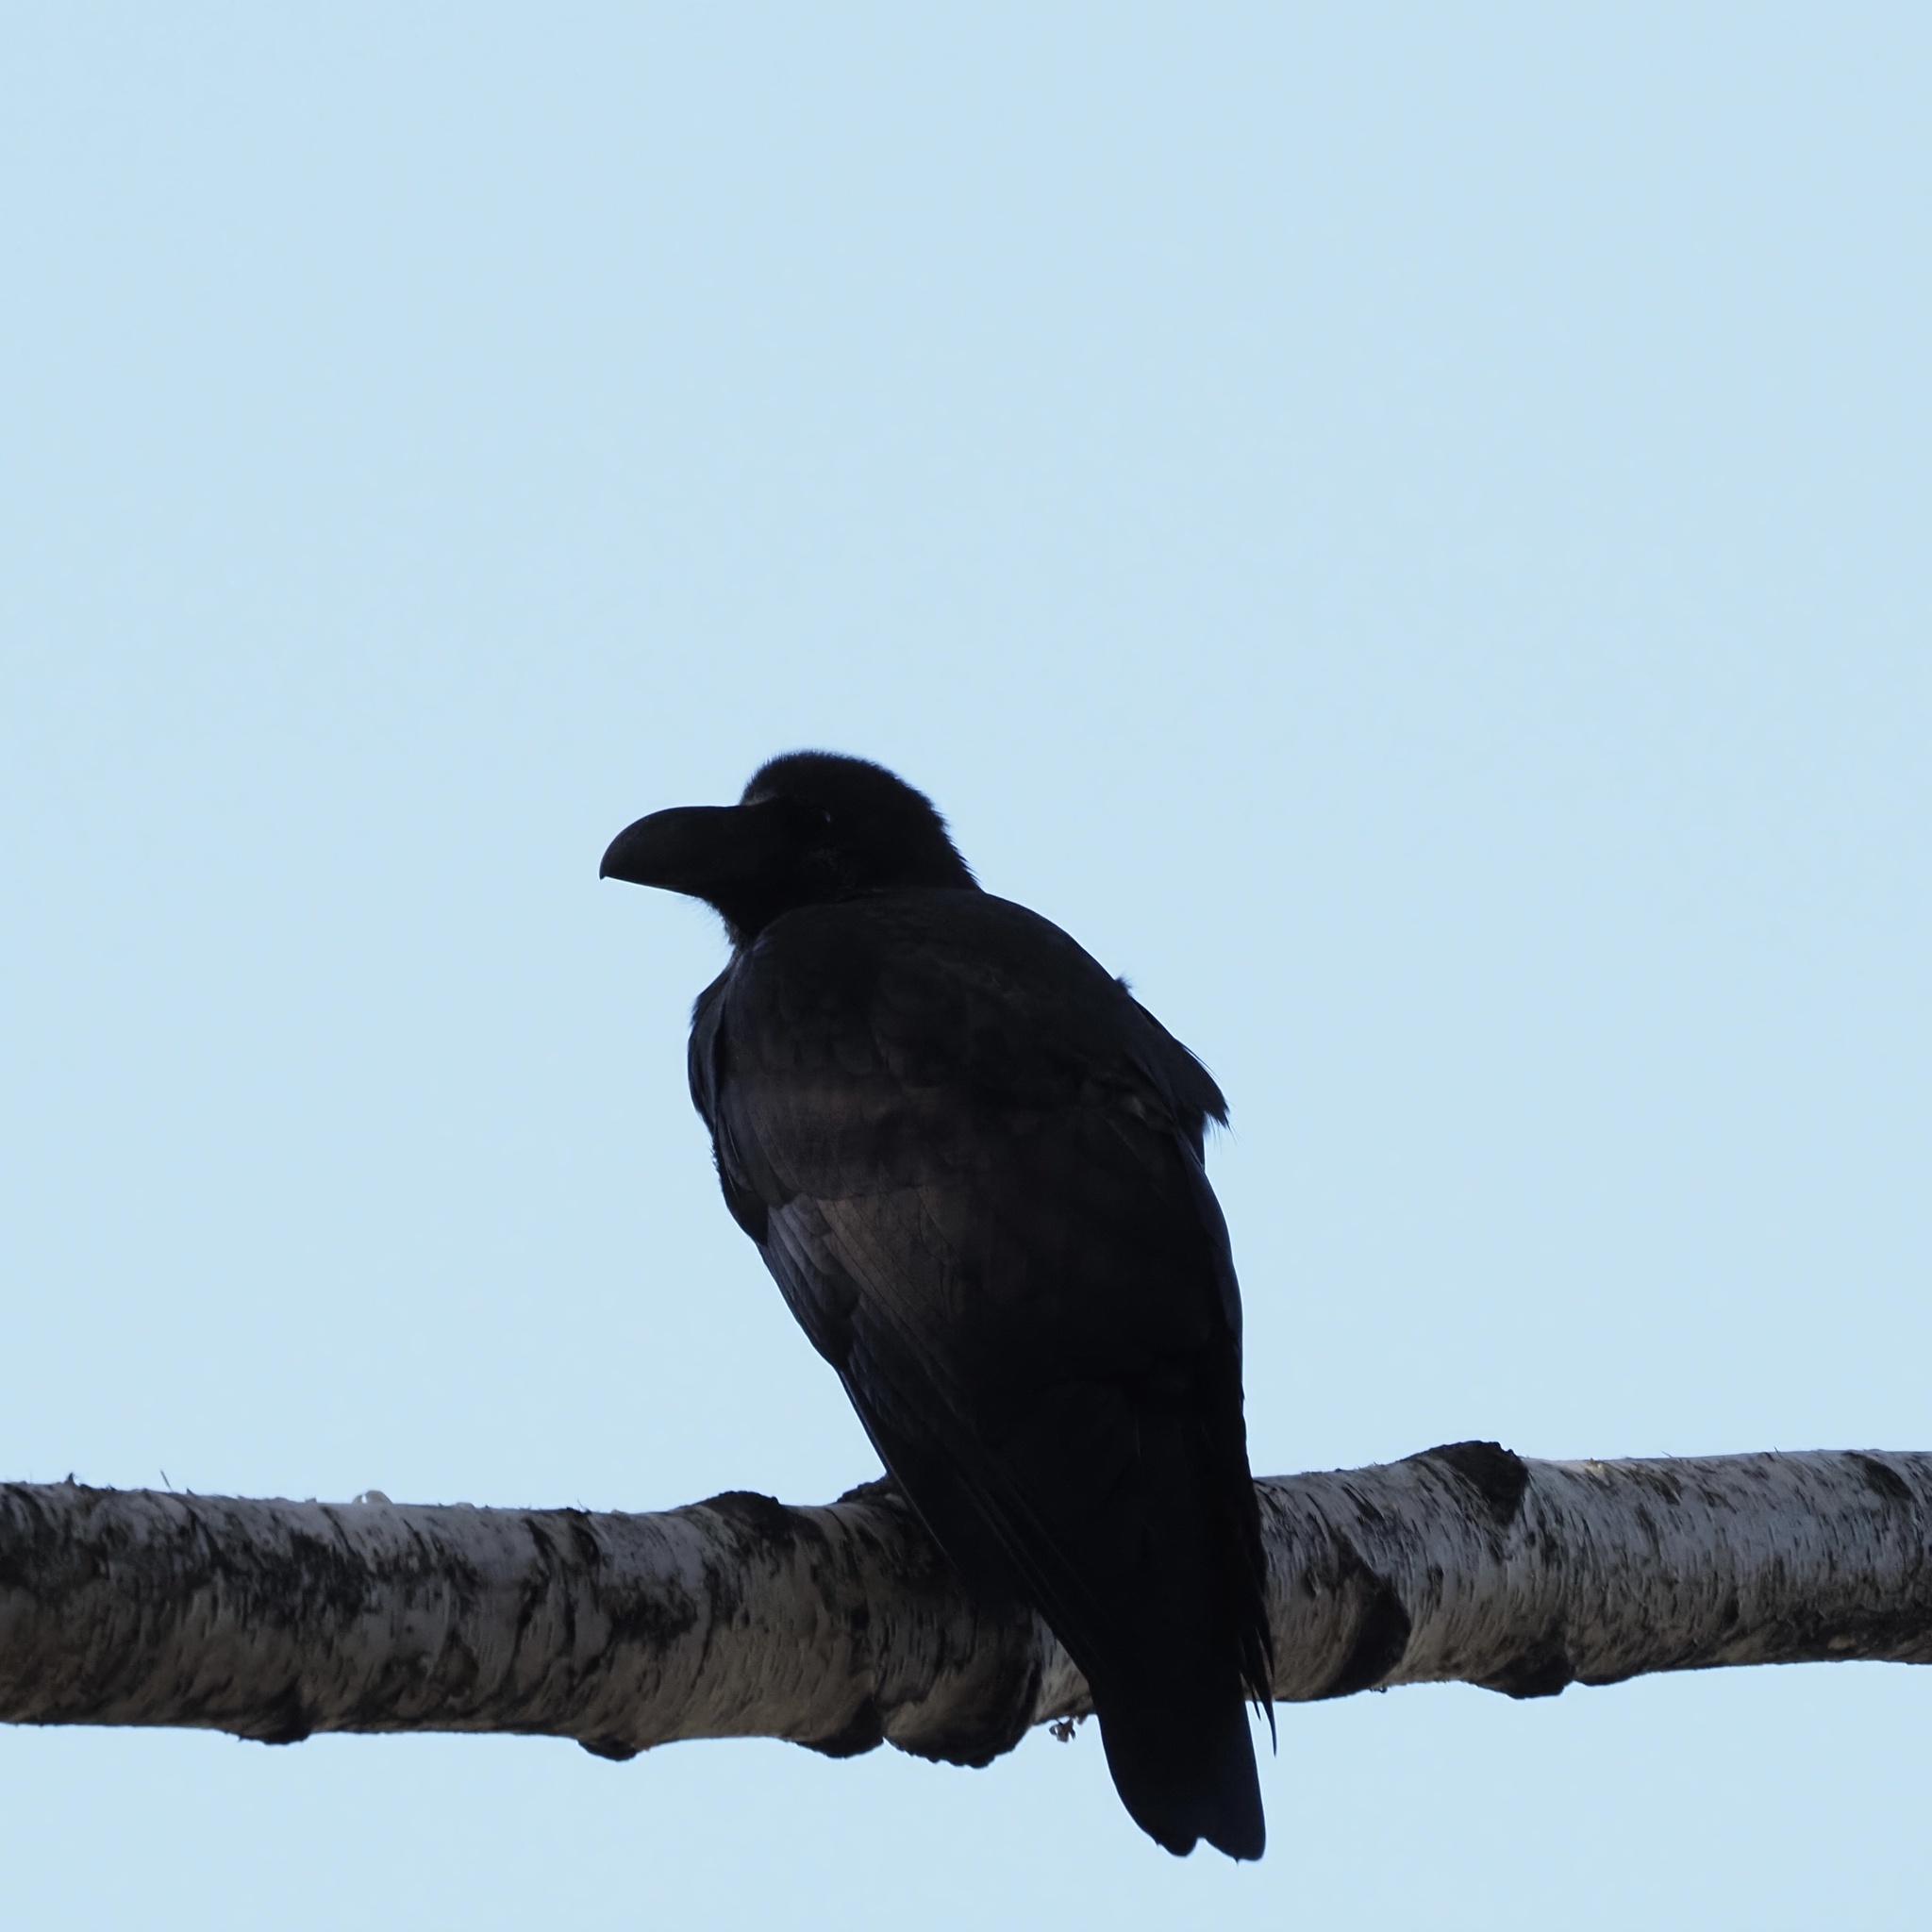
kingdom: Animalia
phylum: Chordata
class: Aves
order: Passeriformes
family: Corvidae
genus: Corvus
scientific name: Corvus macrorhynchos
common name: Large-billed crow
